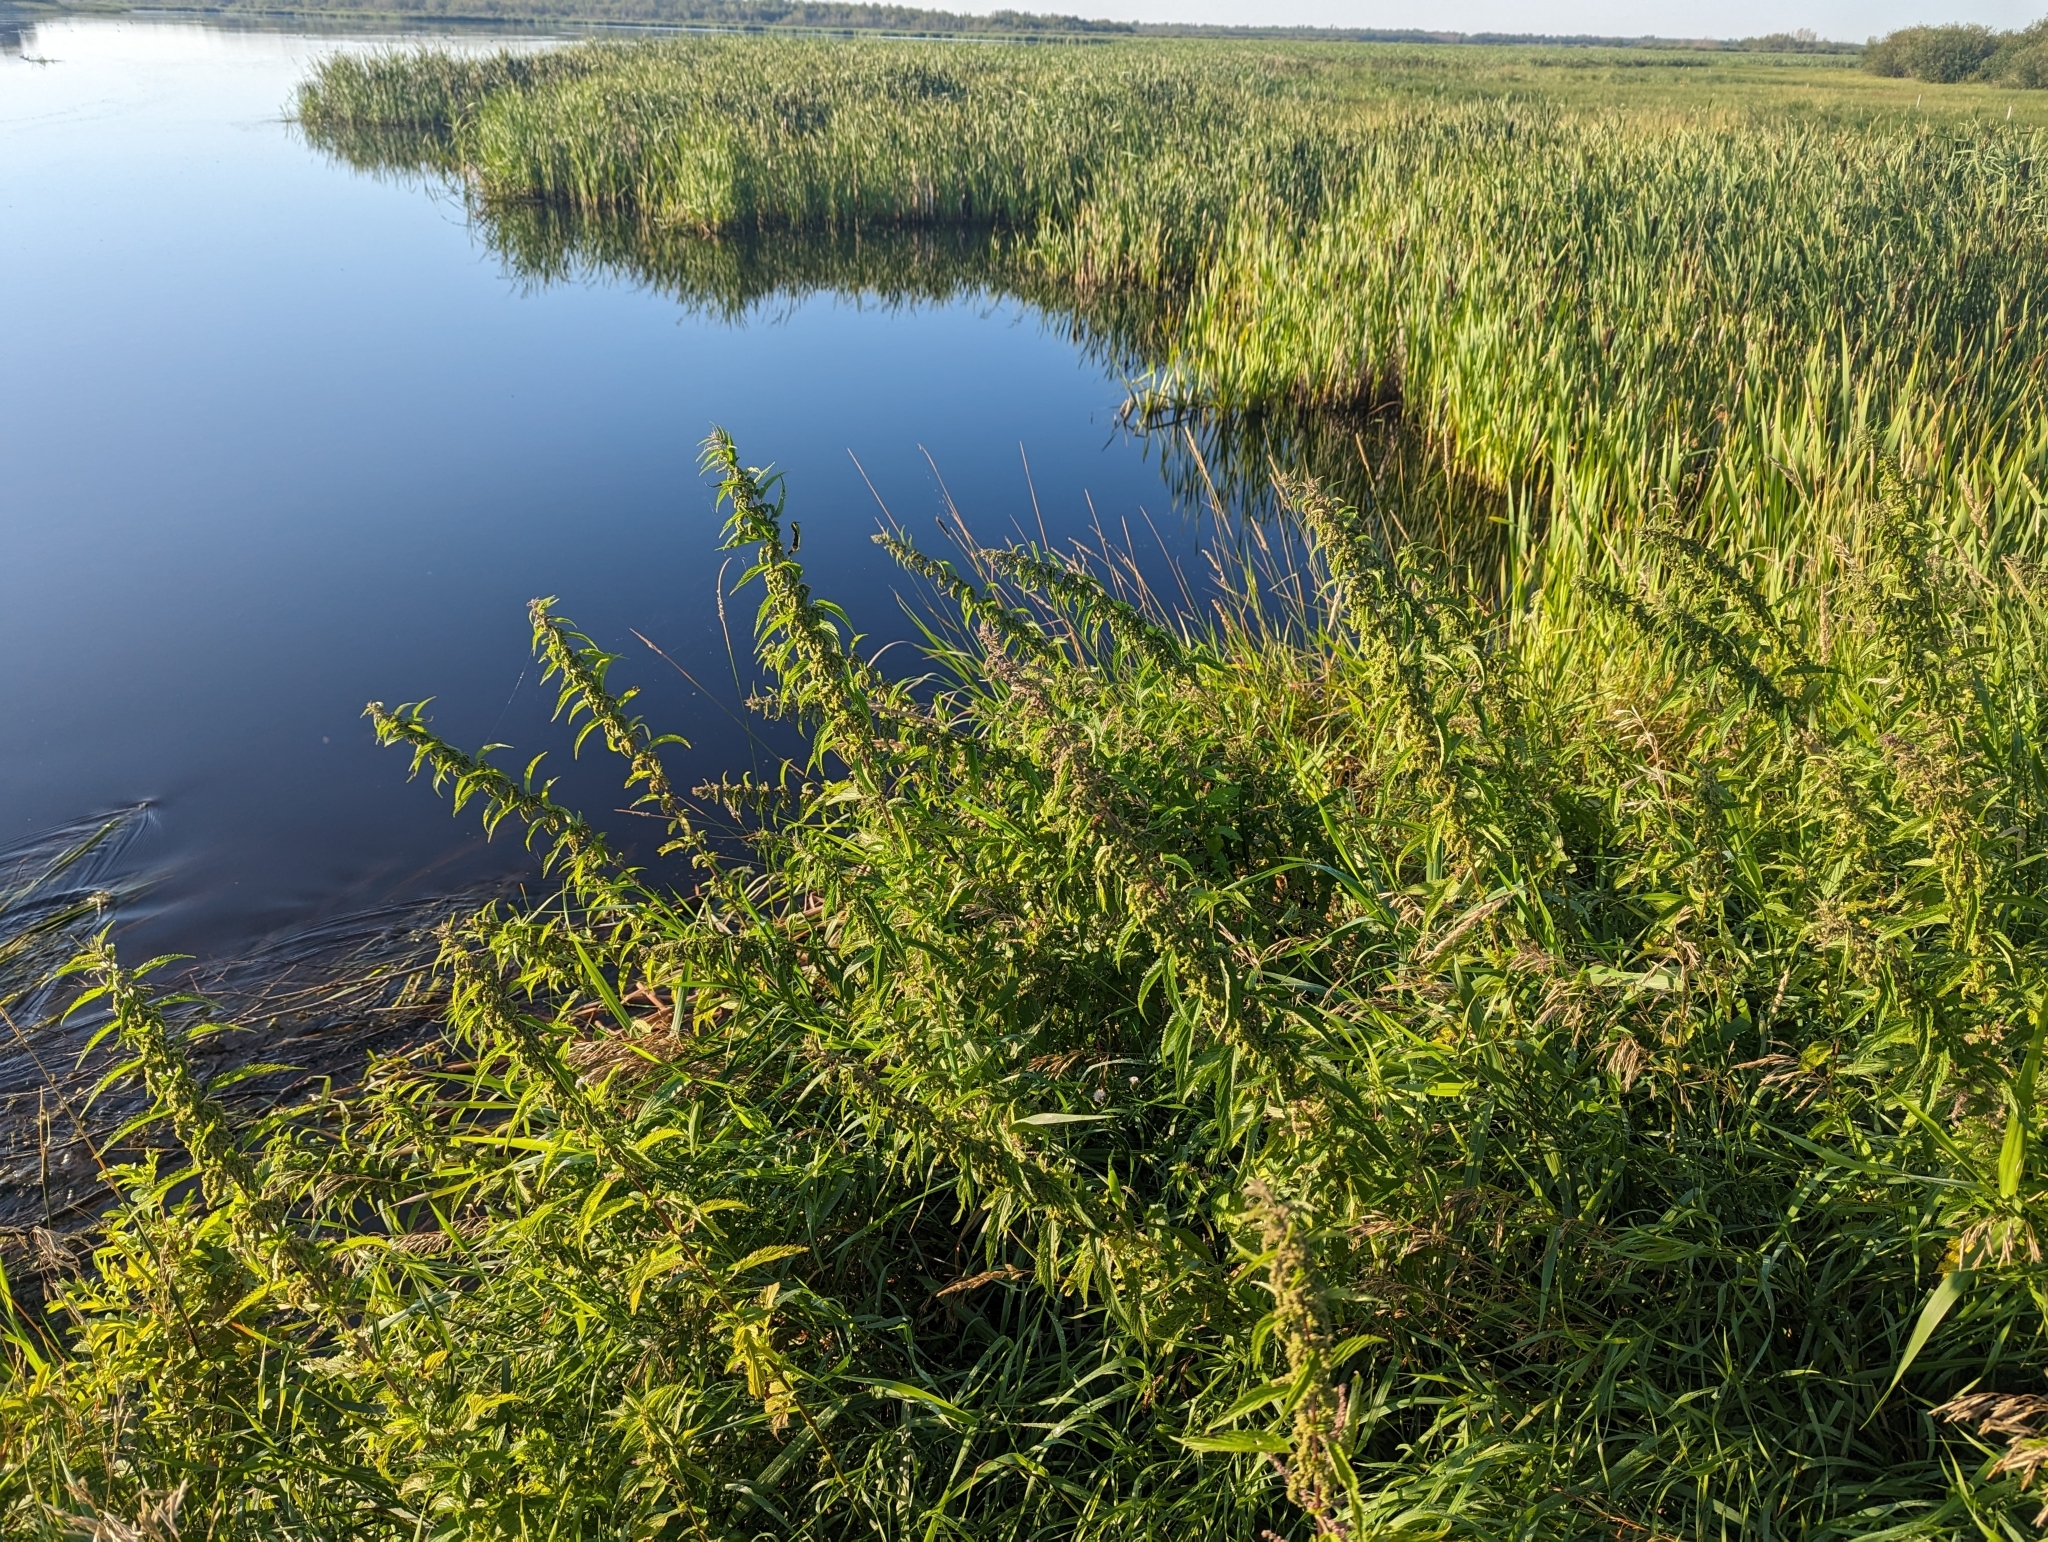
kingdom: Plantae
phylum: Tracheophyta
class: Magnoliopsida
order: Rosales
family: Urticaceae
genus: Urtica
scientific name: Urtica gracilis
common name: Slender stinging nettle
